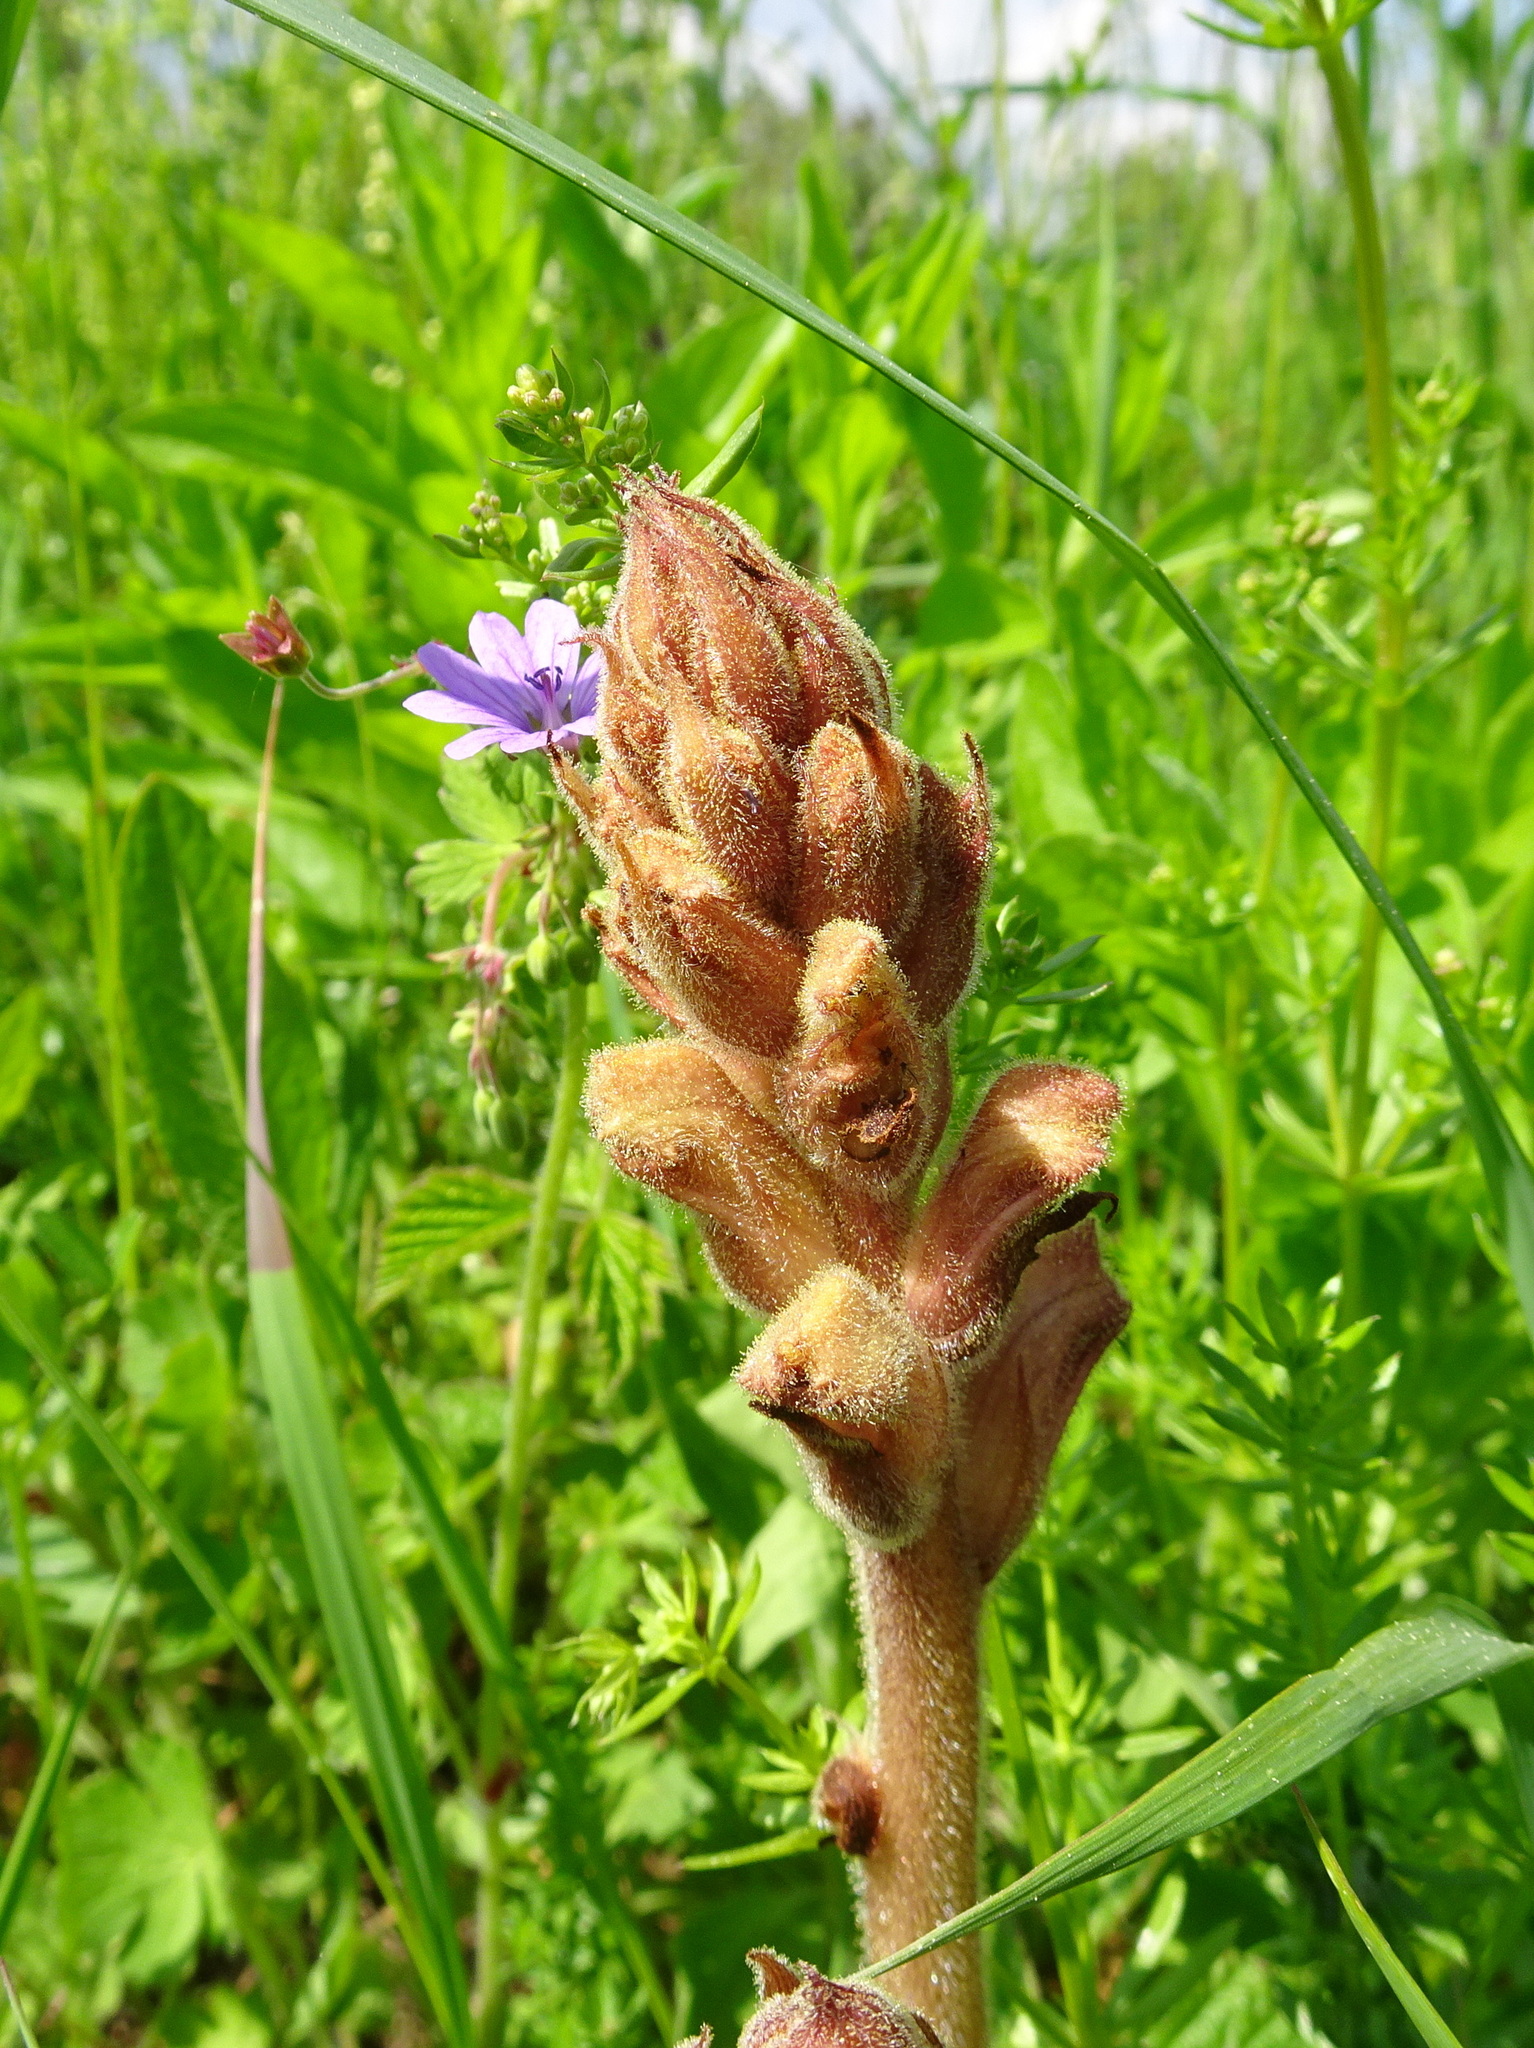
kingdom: Plantae
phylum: Tracheophyta
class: Magnoliopsida
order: Lamiales
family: Orobanchaceae
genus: Orobanche
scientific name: Orobanche caryophyllacea
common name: Bedstraw broomrape
